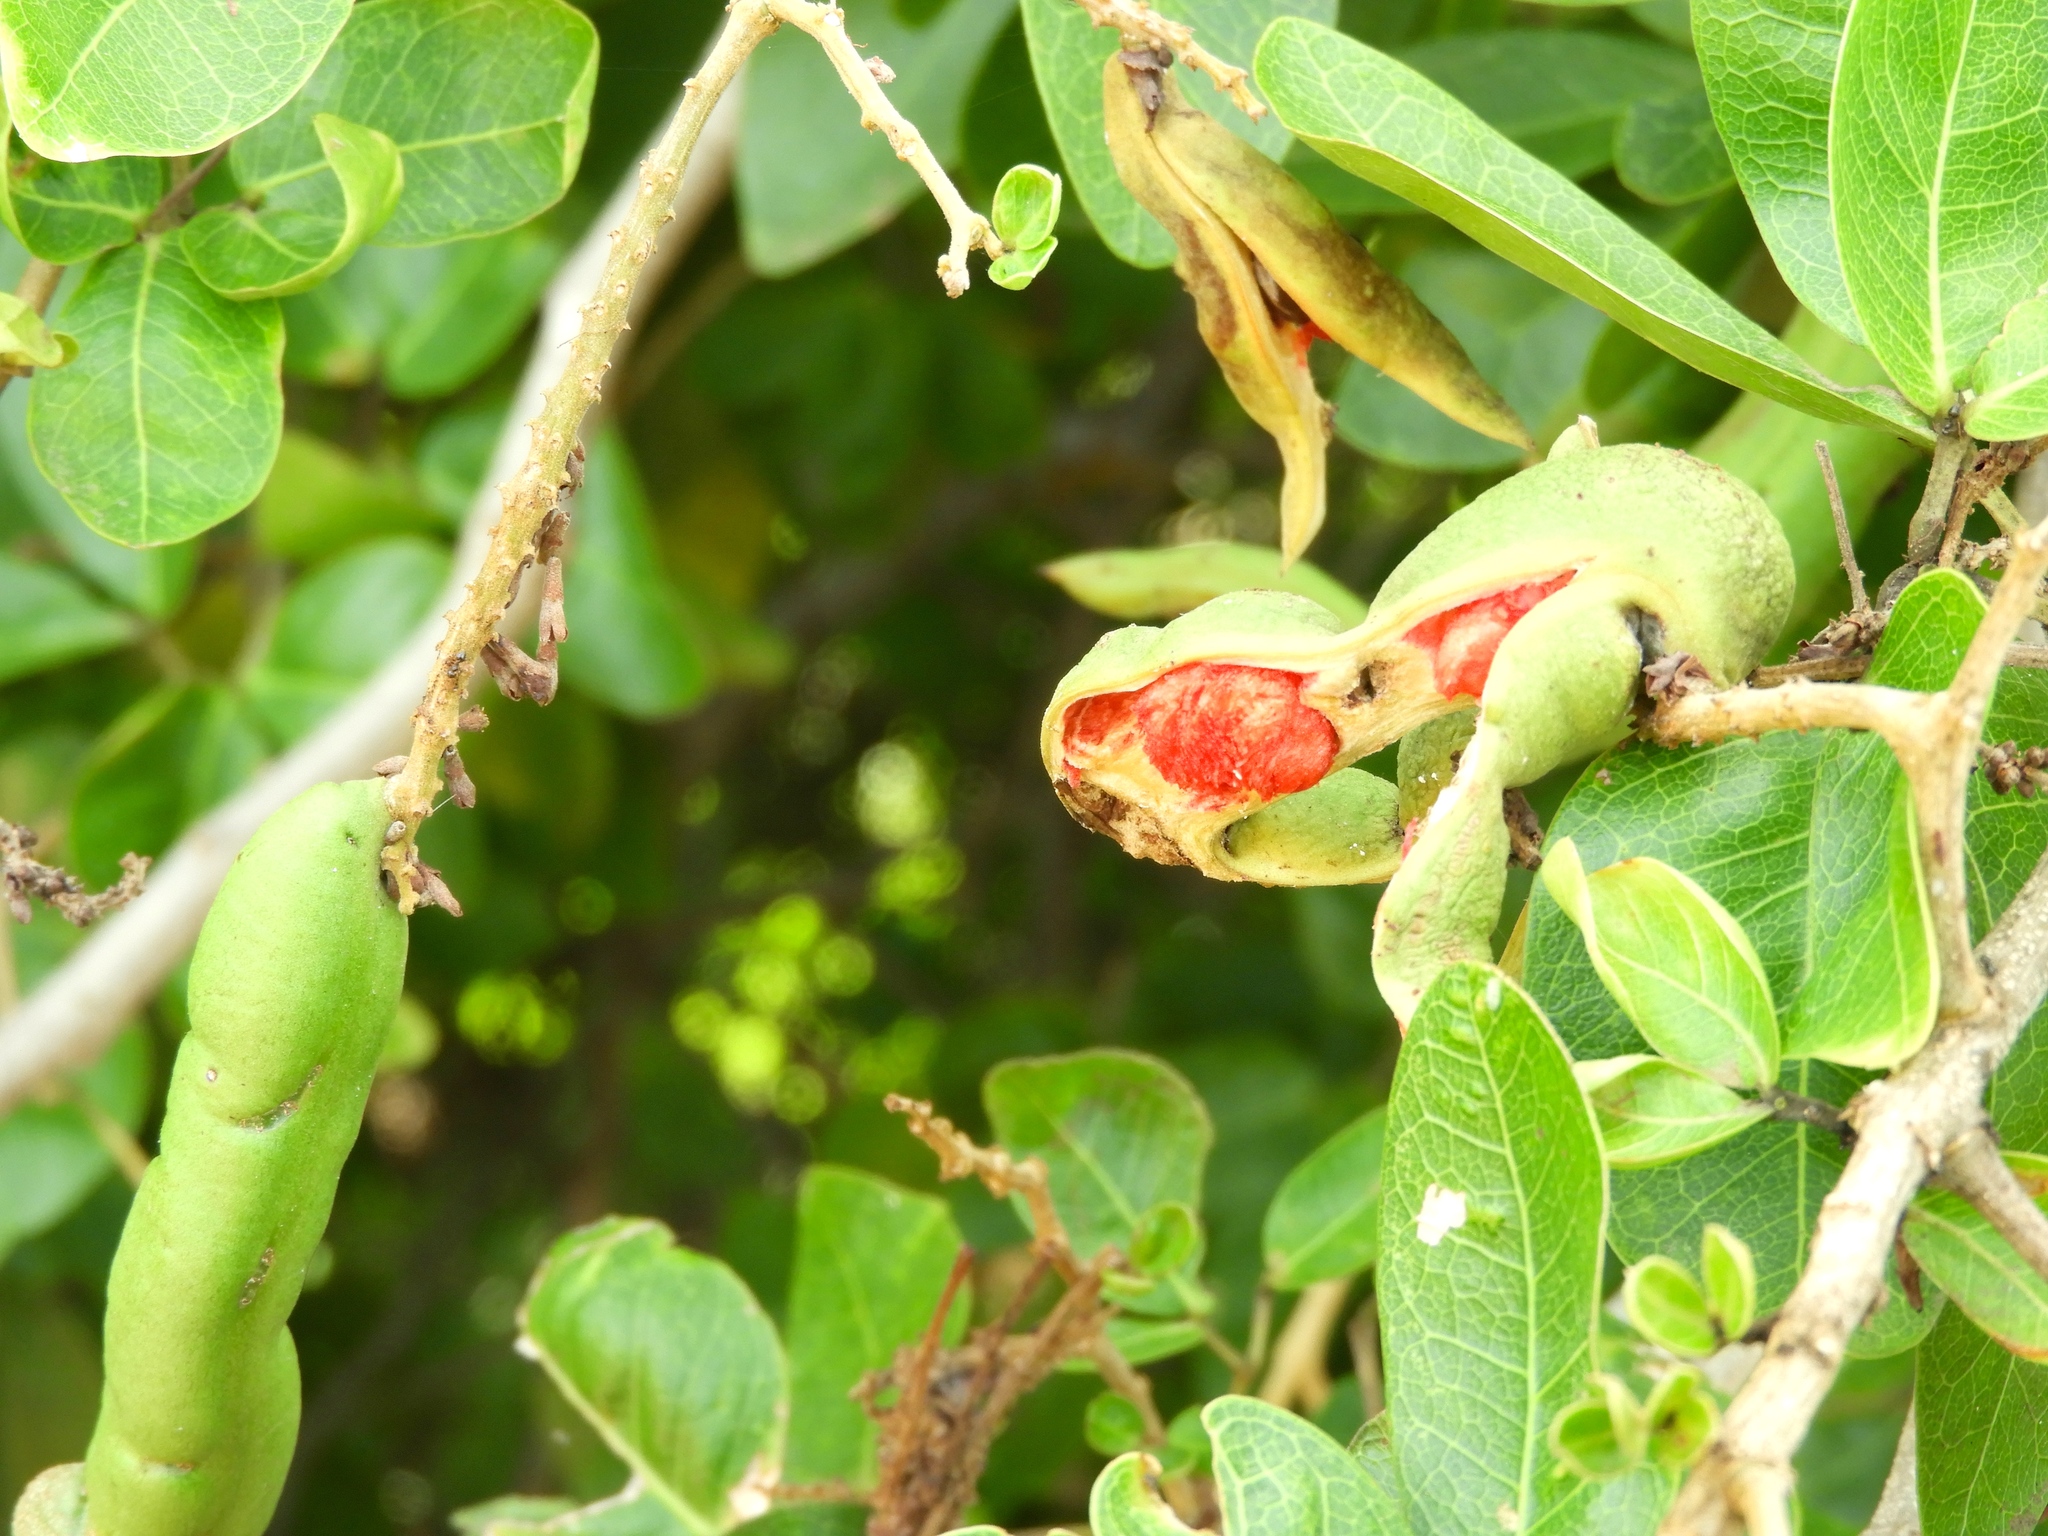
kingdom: Plantae
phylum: Tracheophyta
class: Magnoliopsida
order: Fabales
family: Fabaceae
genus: Pithecellobium
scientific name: Pithecellobium lanceolatum
